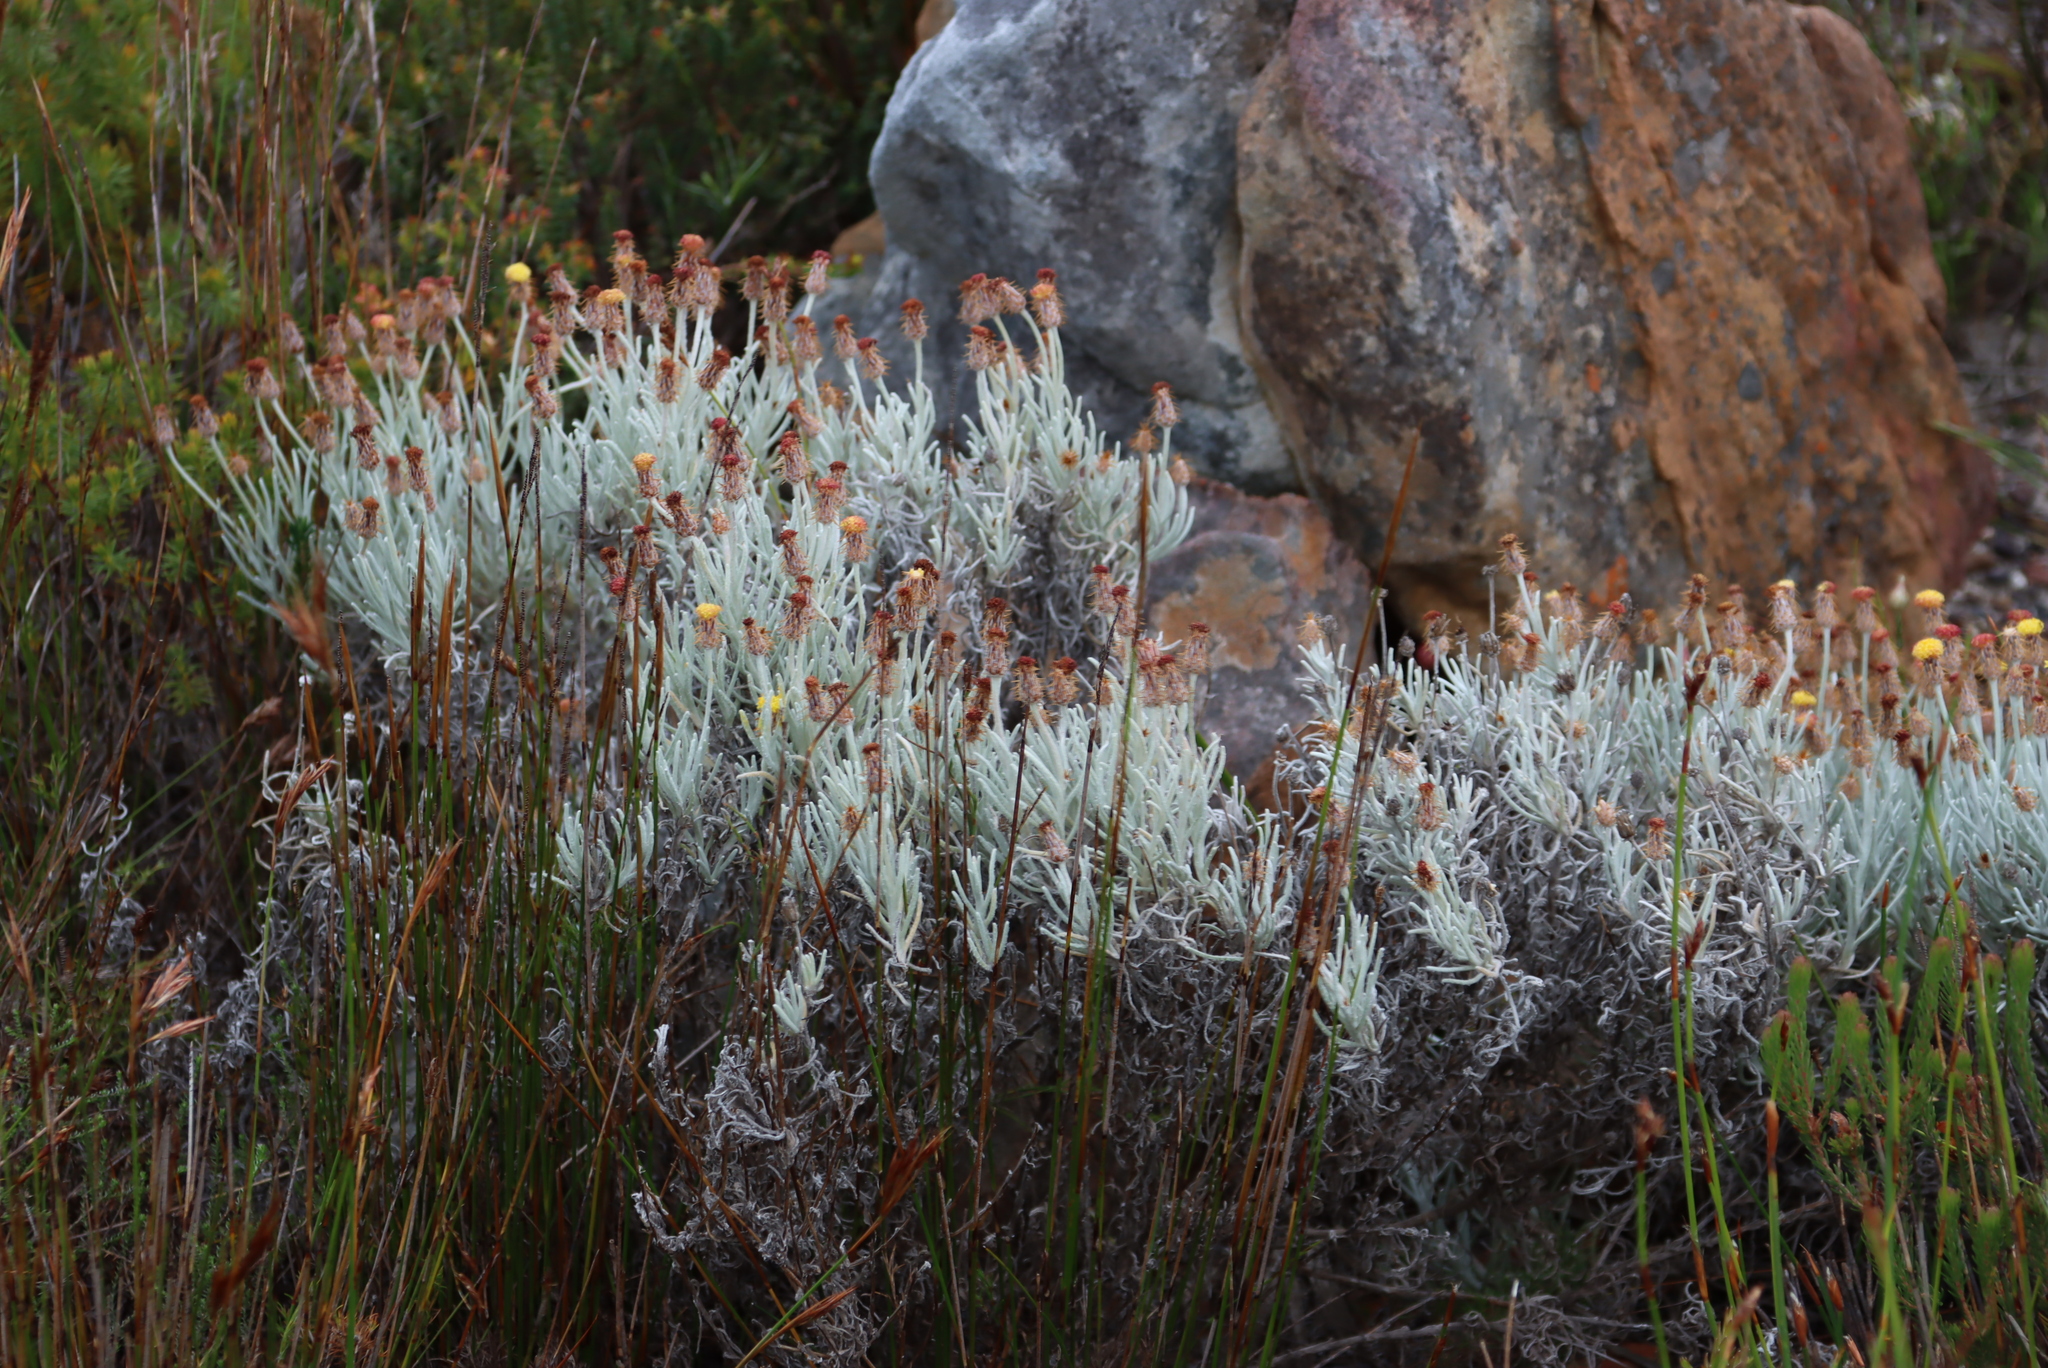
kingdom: Plantae
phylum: Tracheophyta
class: Magnoliopsida
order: Asterales
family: Asteraceae
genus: Syncarpha
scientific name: Syncarpha gnaphaloides
